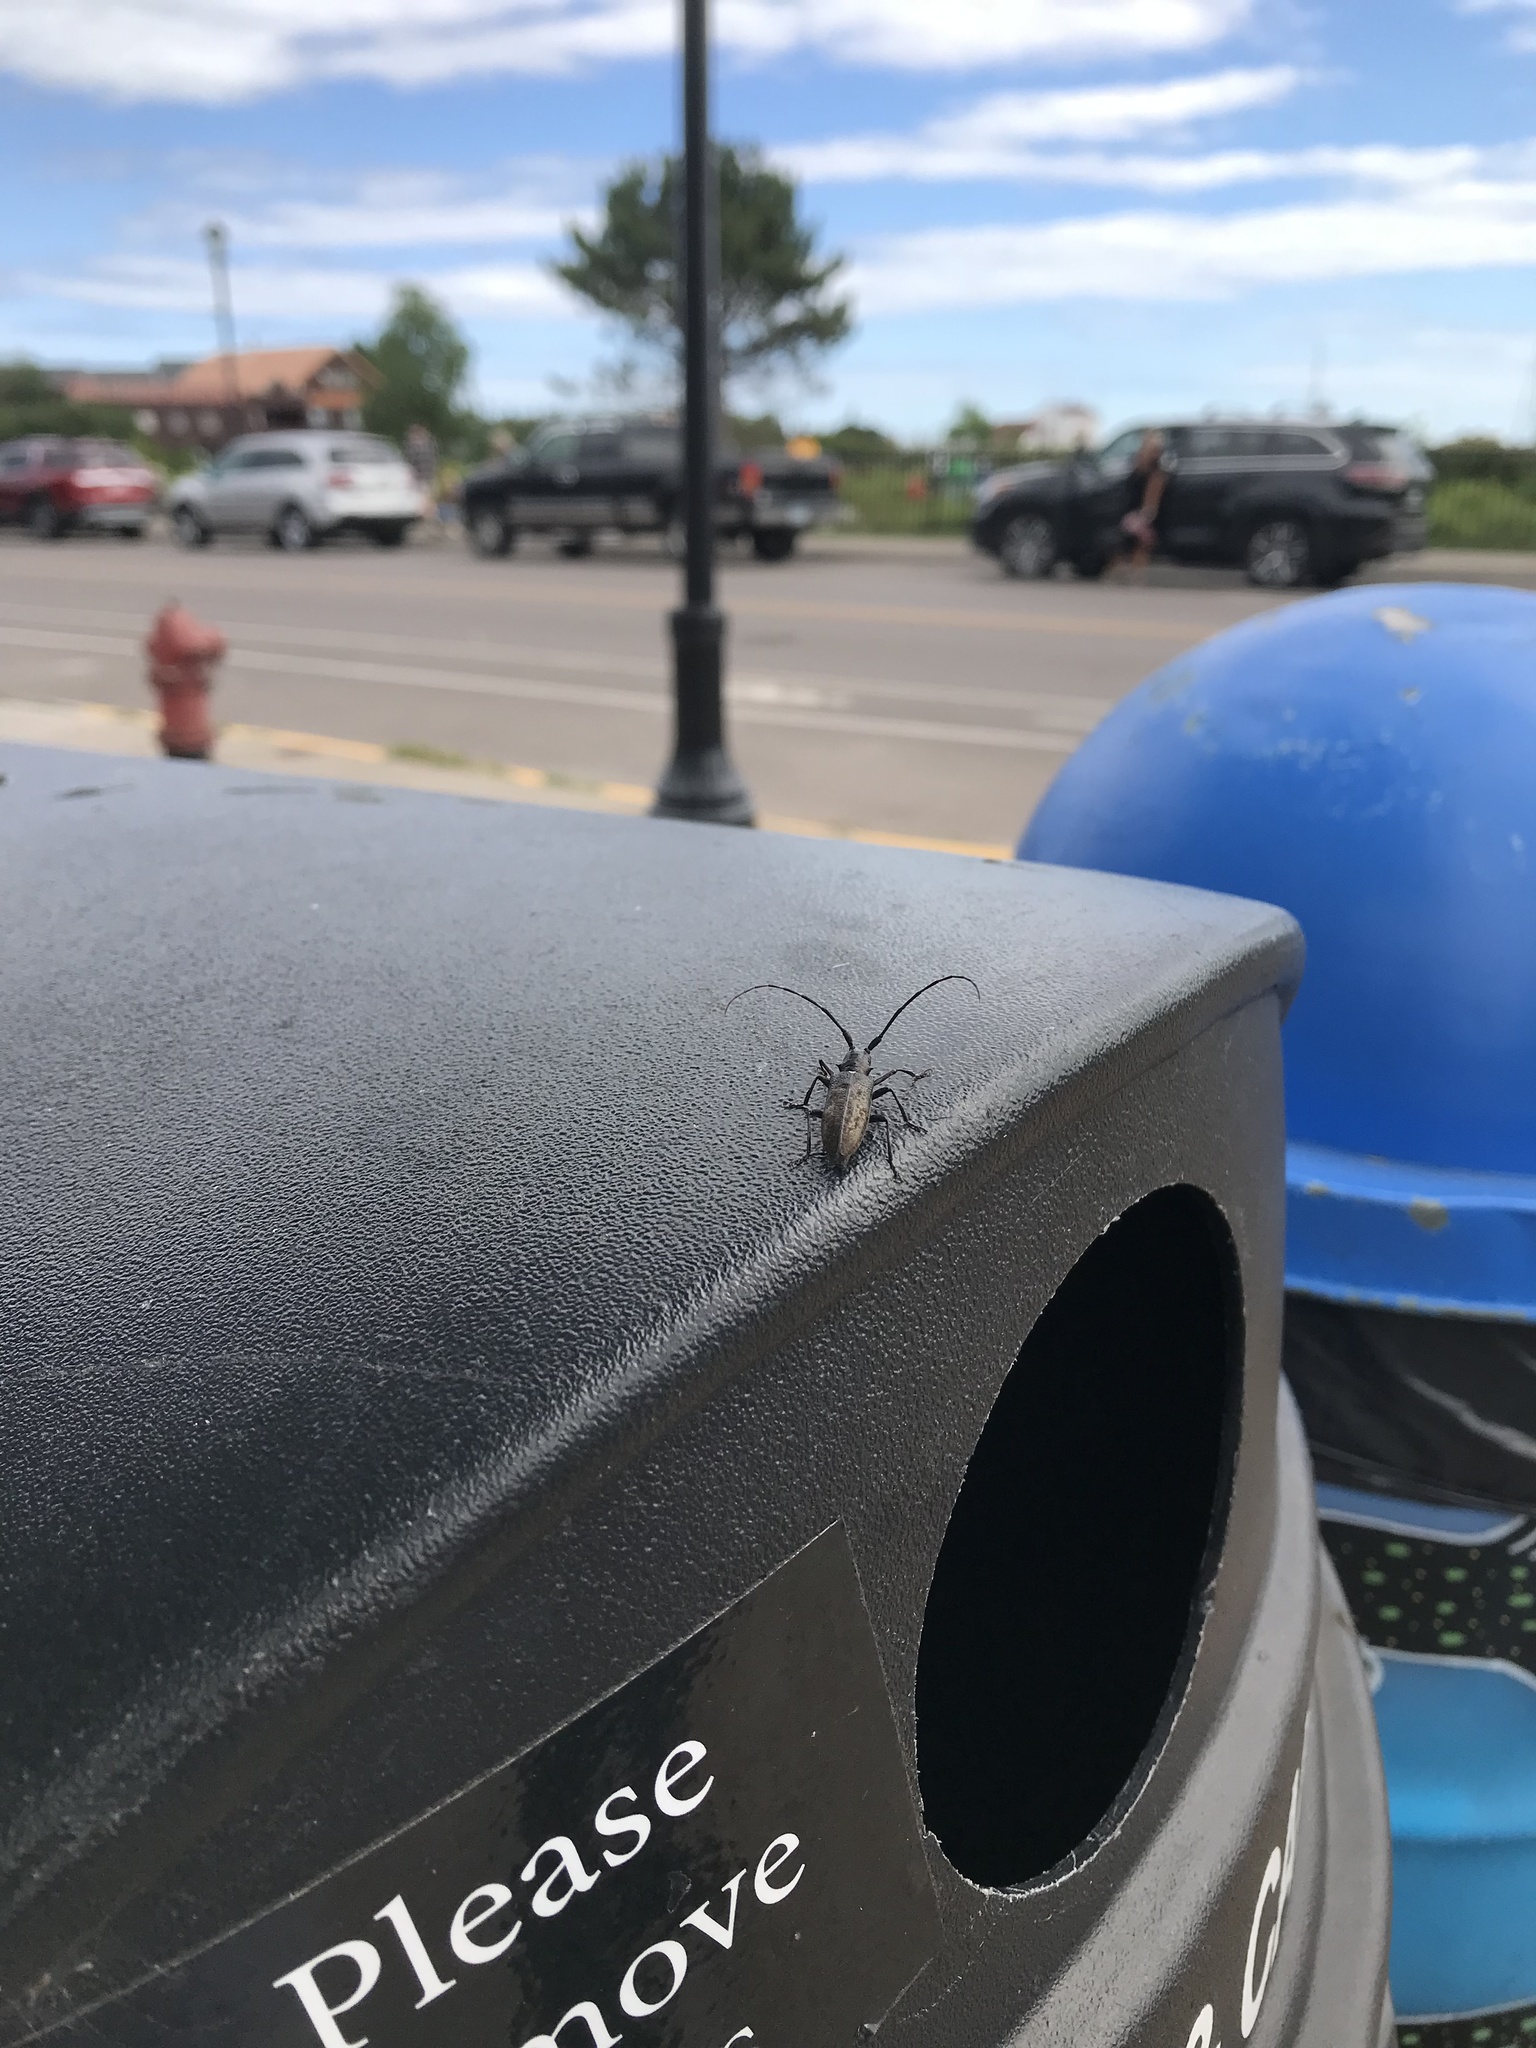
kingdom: Animalia
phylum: Arthropoda
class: Insecta
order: Coleoptera
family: Cerambycidae
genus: Monochamus
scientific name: Monochamus scutellatus
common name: White-spotted sawyer beetle
